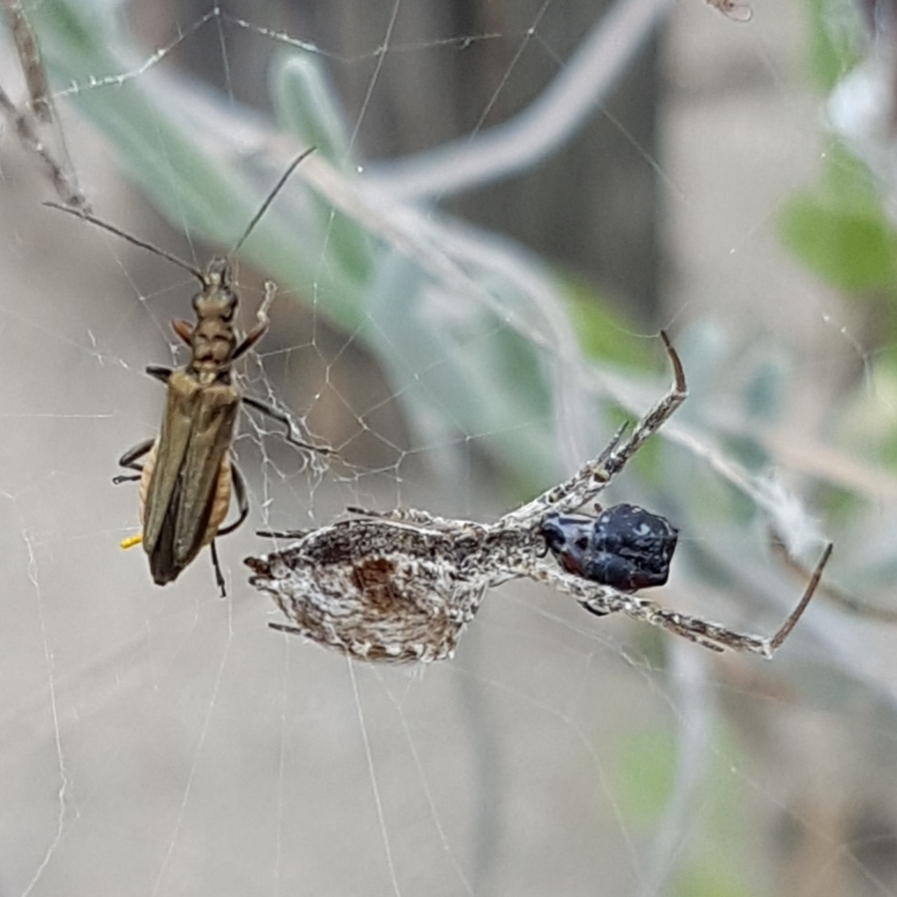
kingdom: Animalia
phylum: Arthropoda
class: Arachnida
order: Araneae
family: Uloboridae
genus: Uloborus
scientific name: Uloborus walckenaerius
